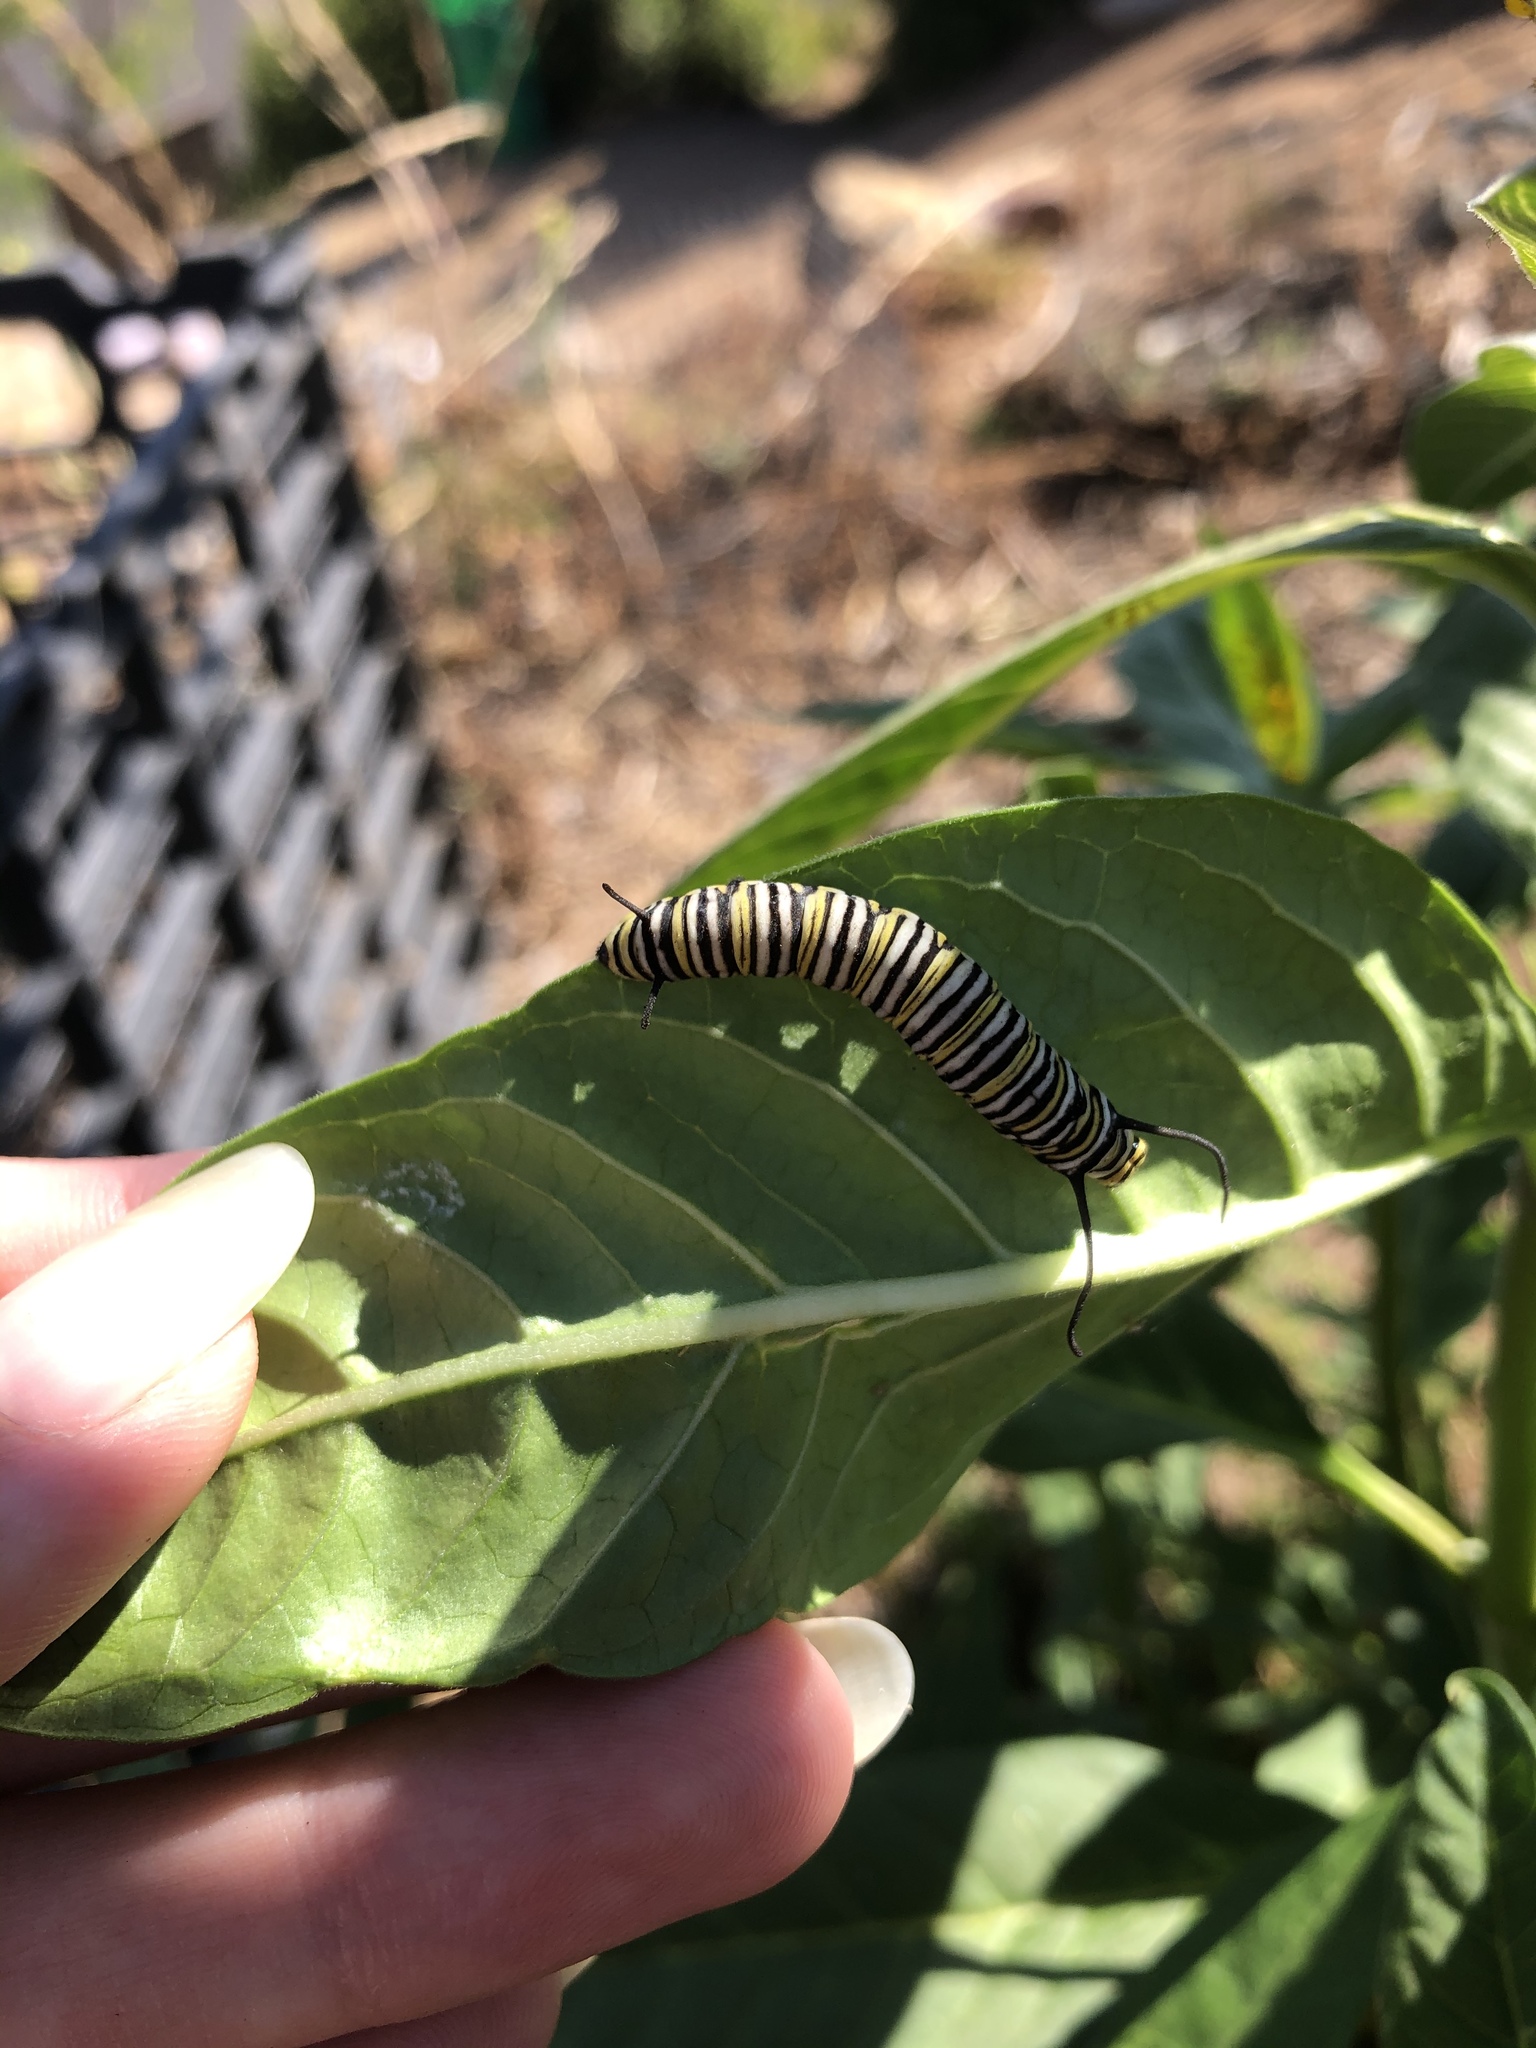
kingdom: Animalia
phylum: Arthropoda
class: Insecta
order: Lepidoptera
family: Nymphalidae
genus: Danaus
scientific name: Danaus plexippus
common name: Monarch
